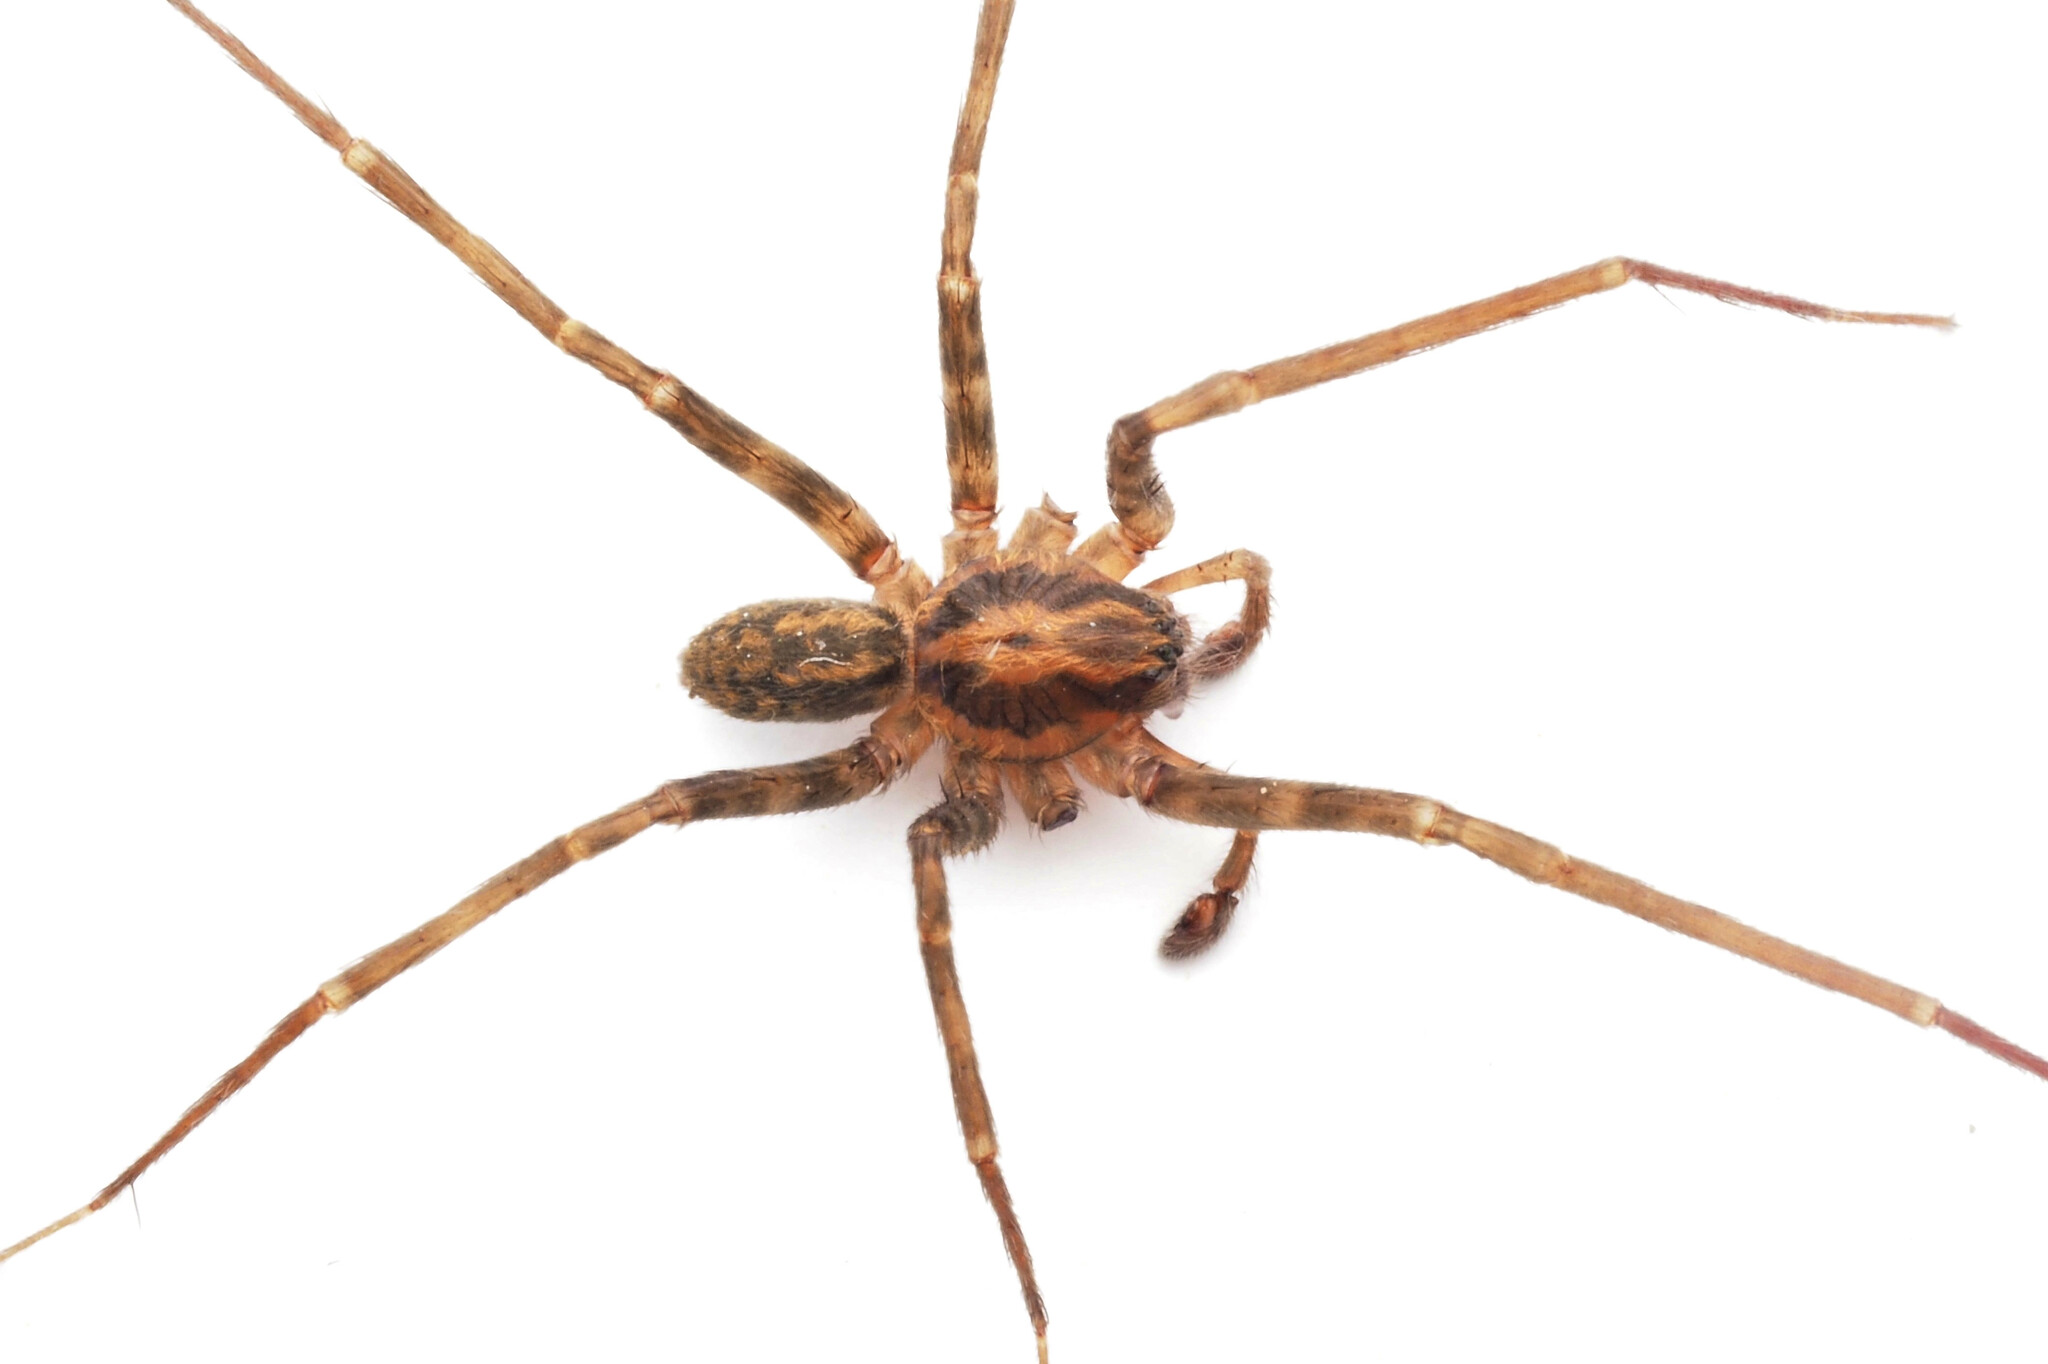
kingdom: Animalia
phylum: Arthropoda
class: Arachnida
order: Araneae
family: Zoropsidae
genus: Austrotengella
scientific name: Austrotengella hackerae
